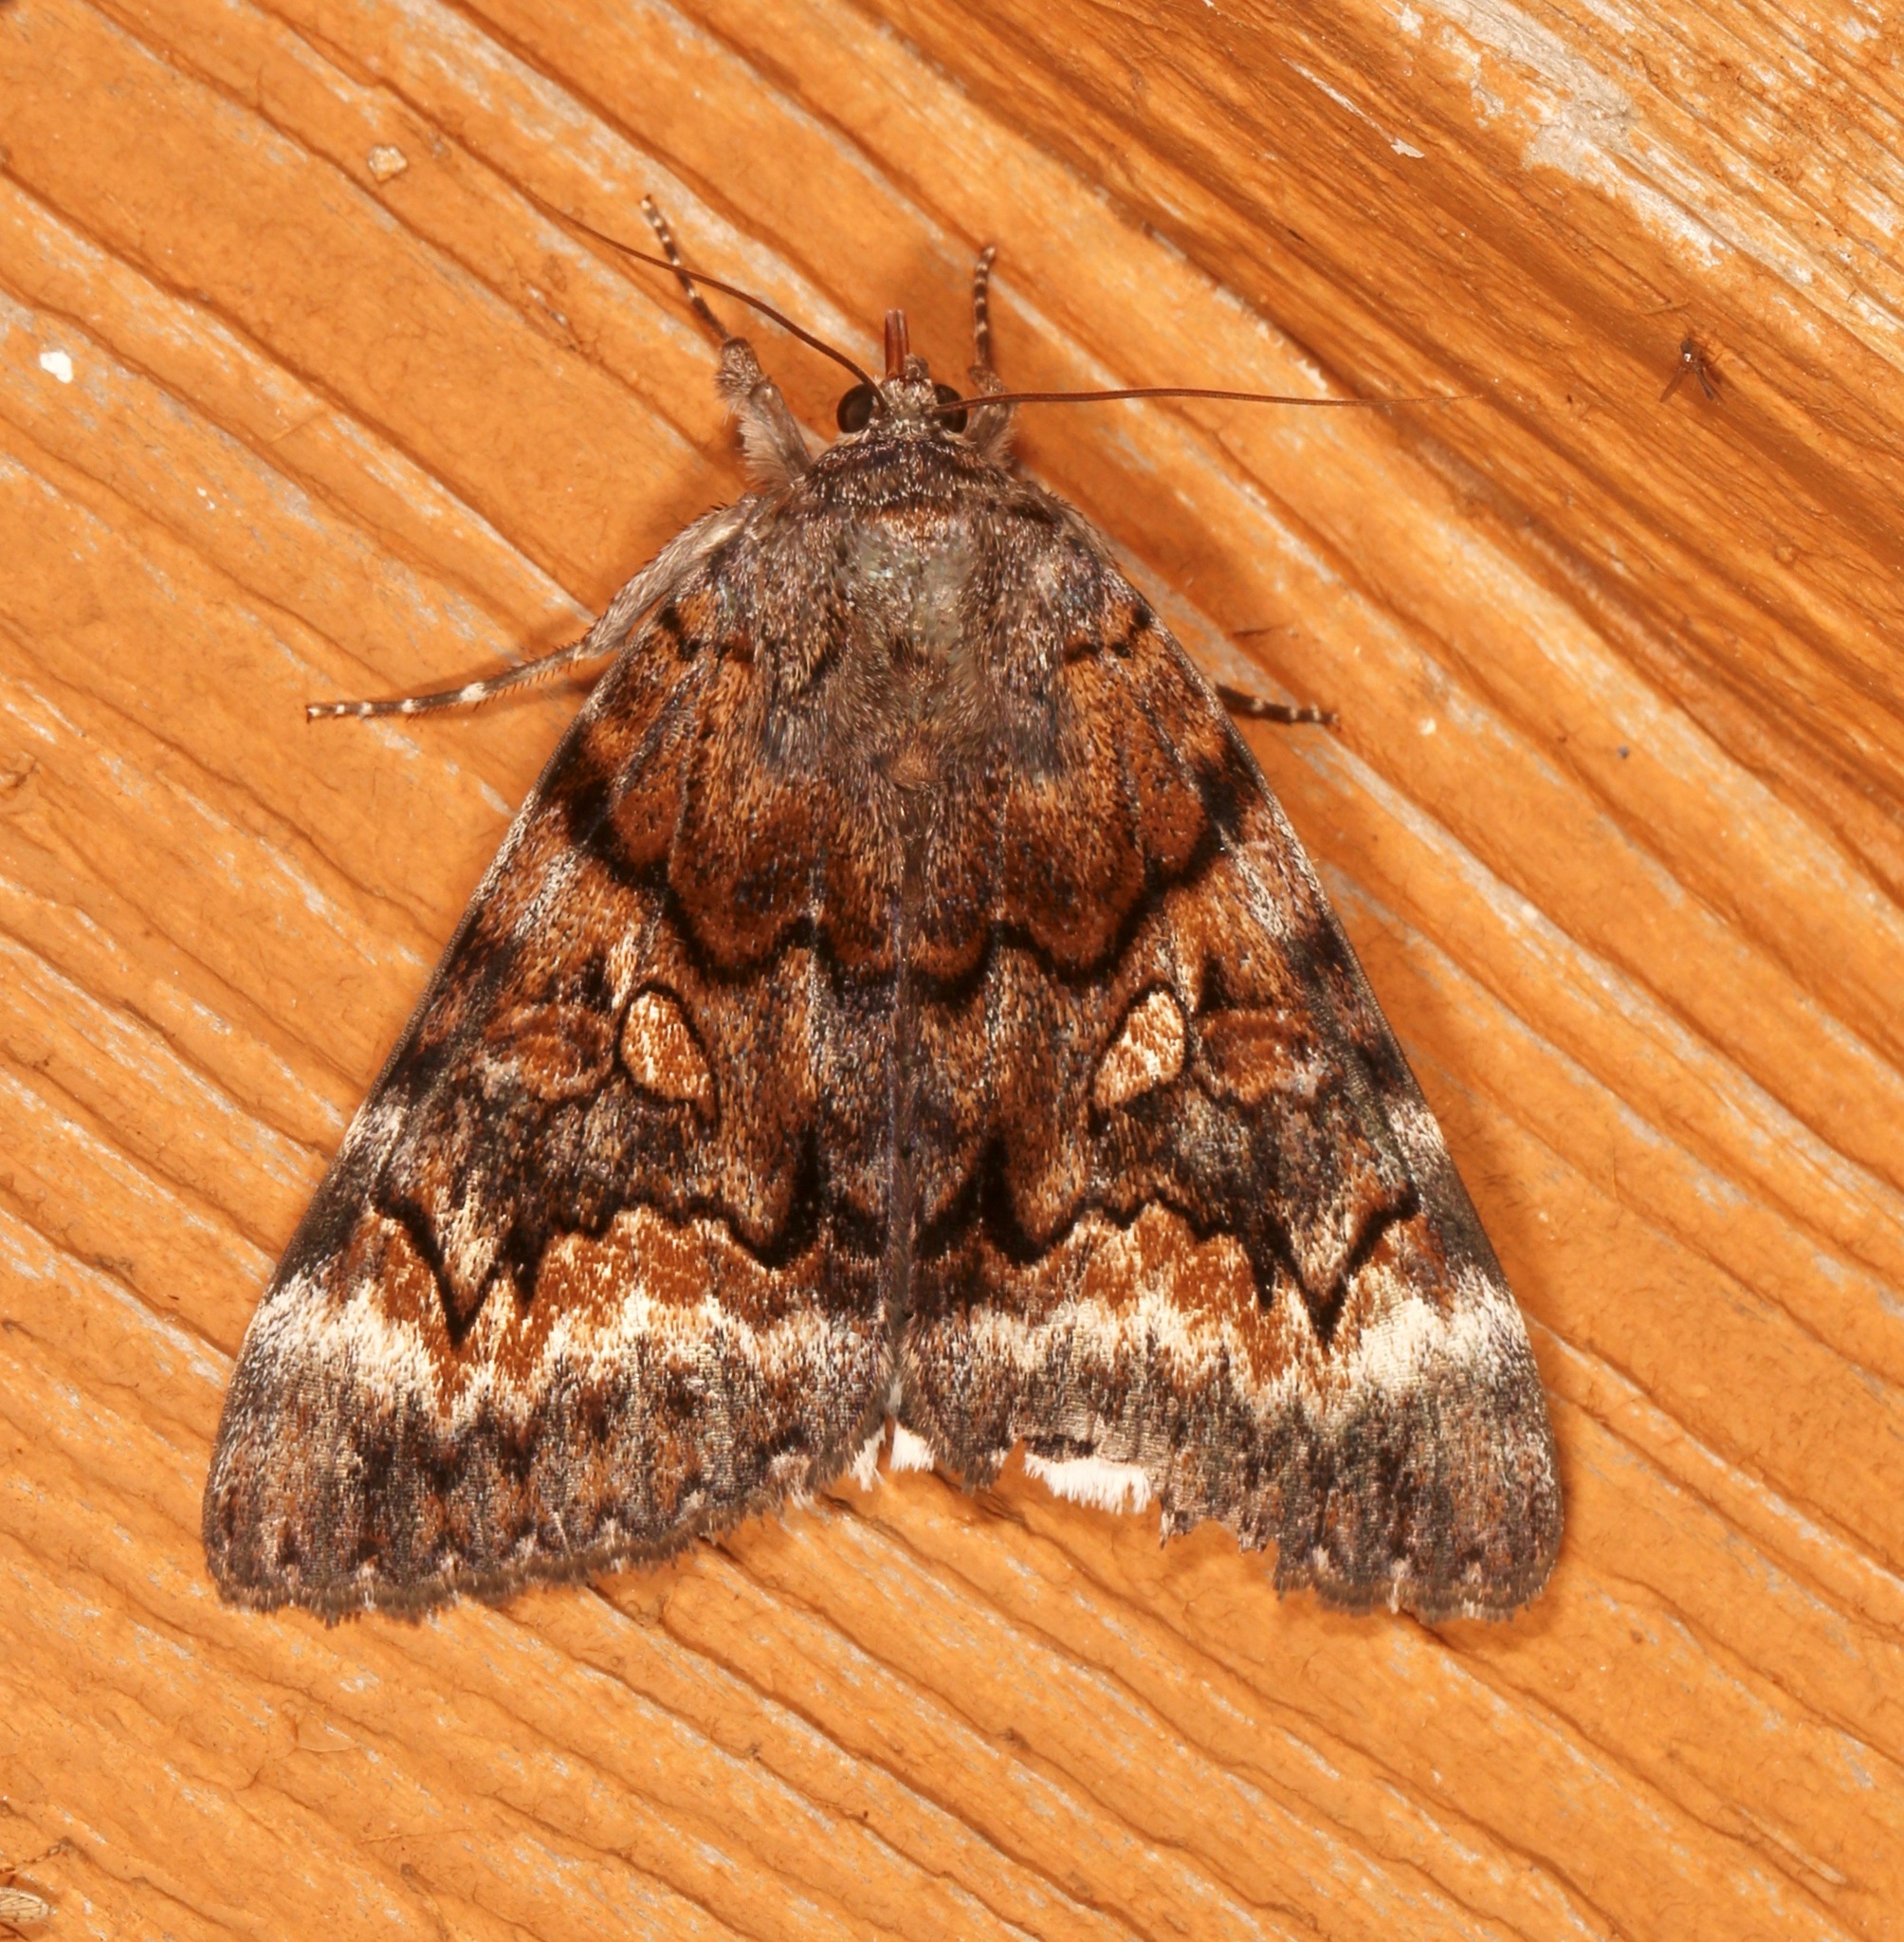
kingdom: Animalia
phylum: Arthropoda
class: Insecta
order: Lepidoptera
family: Erebidae
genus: Catocala
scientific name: Catocala epione
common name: Epione underwing
